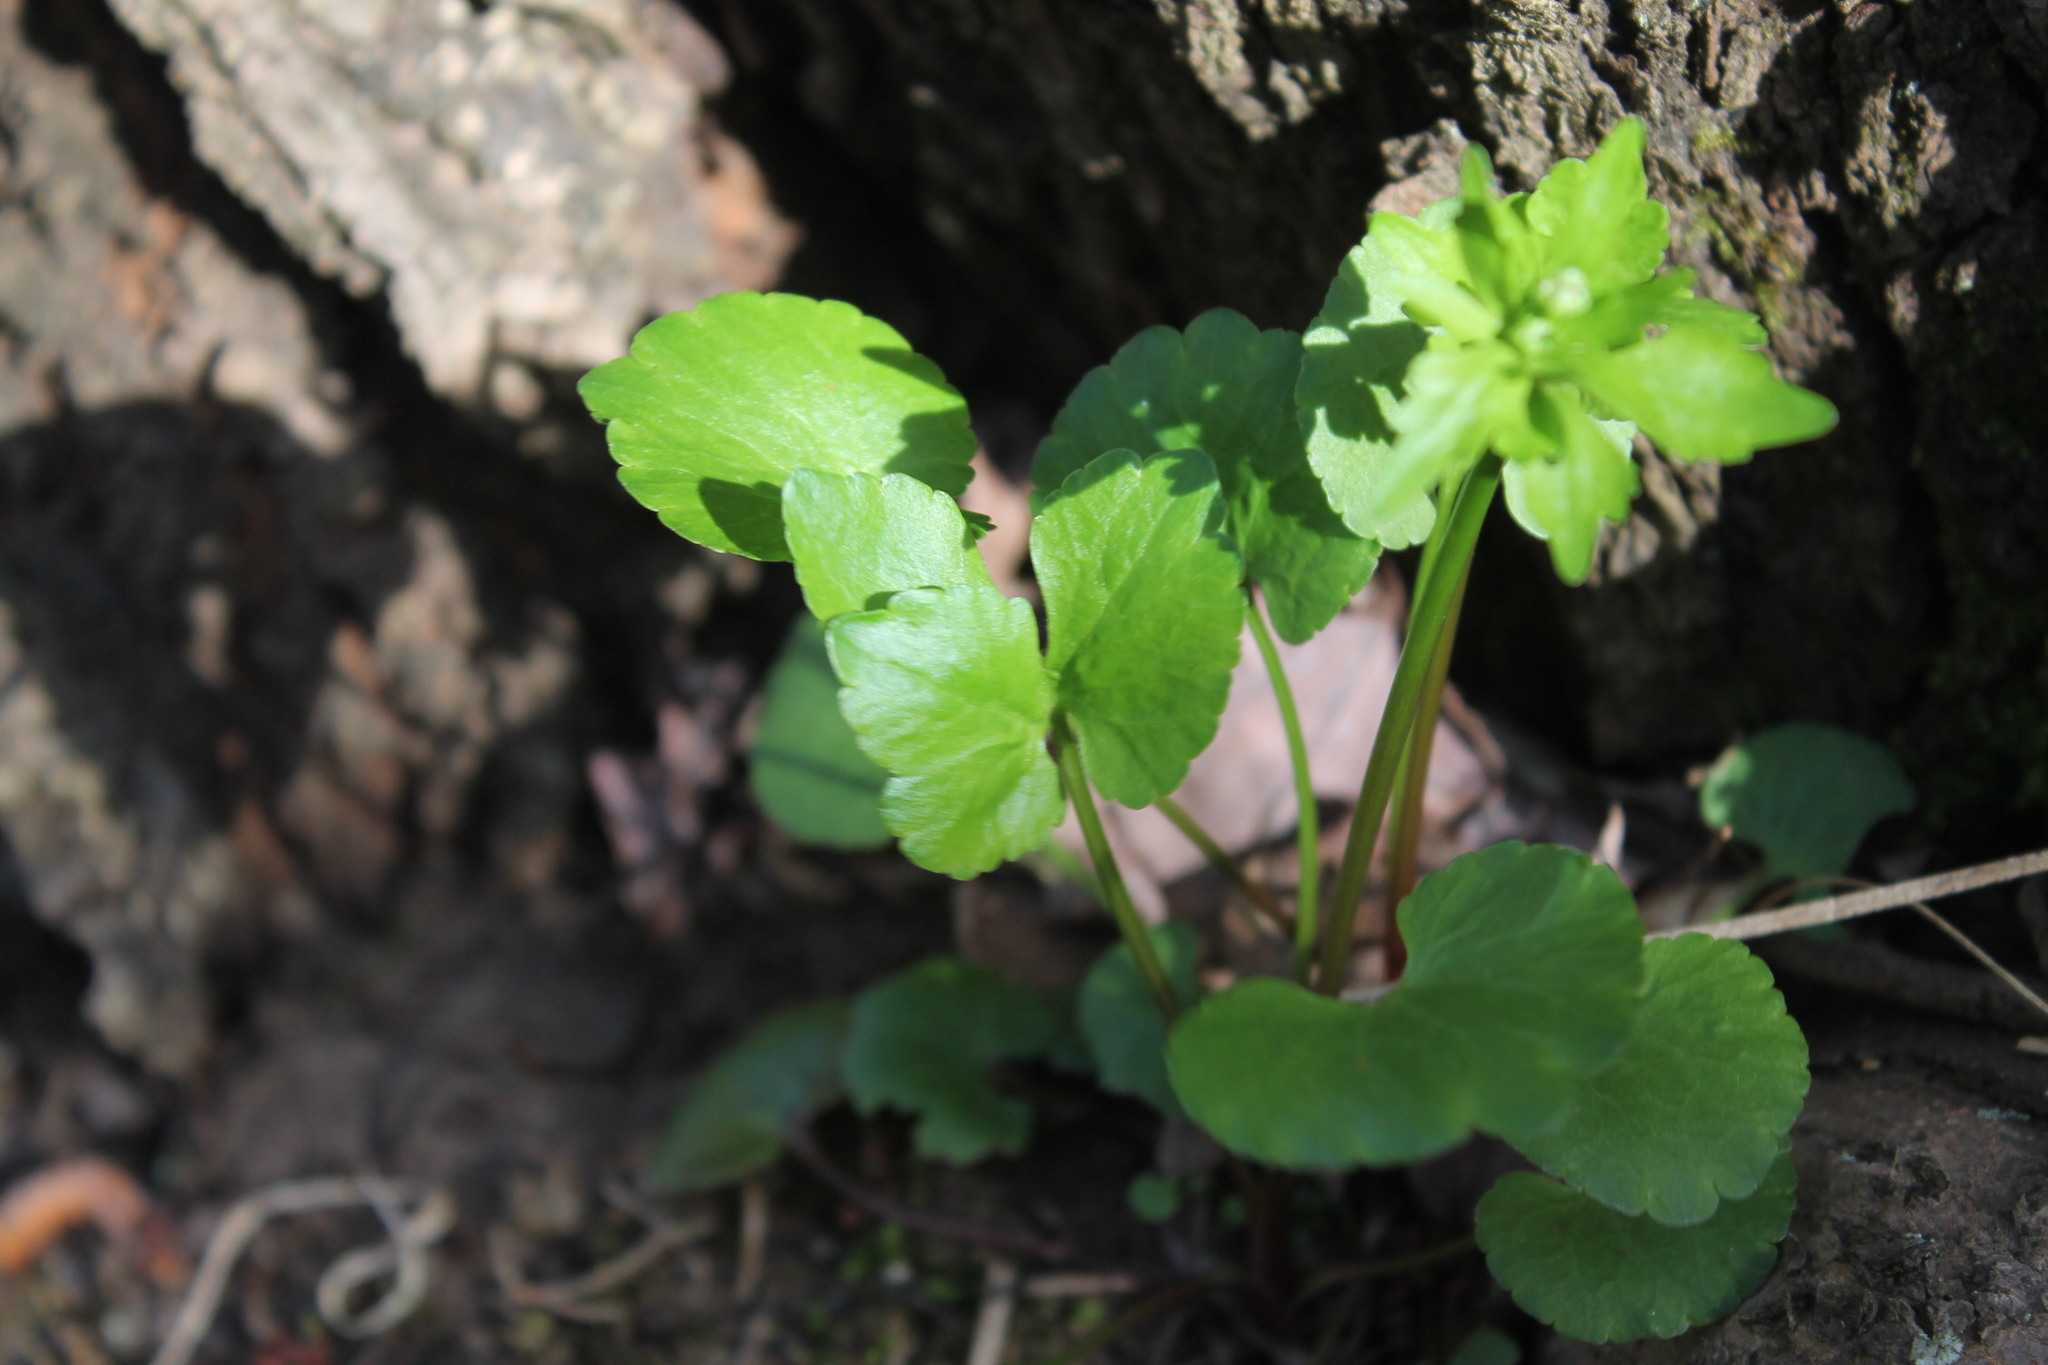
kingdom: Plantae
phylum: Tracheophyta
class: Magnoliopsida
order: Ranunculales
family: Ranunculaceae
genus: Ranunculus
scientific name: Ranunculus abortivus
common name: Early wood buttercup
